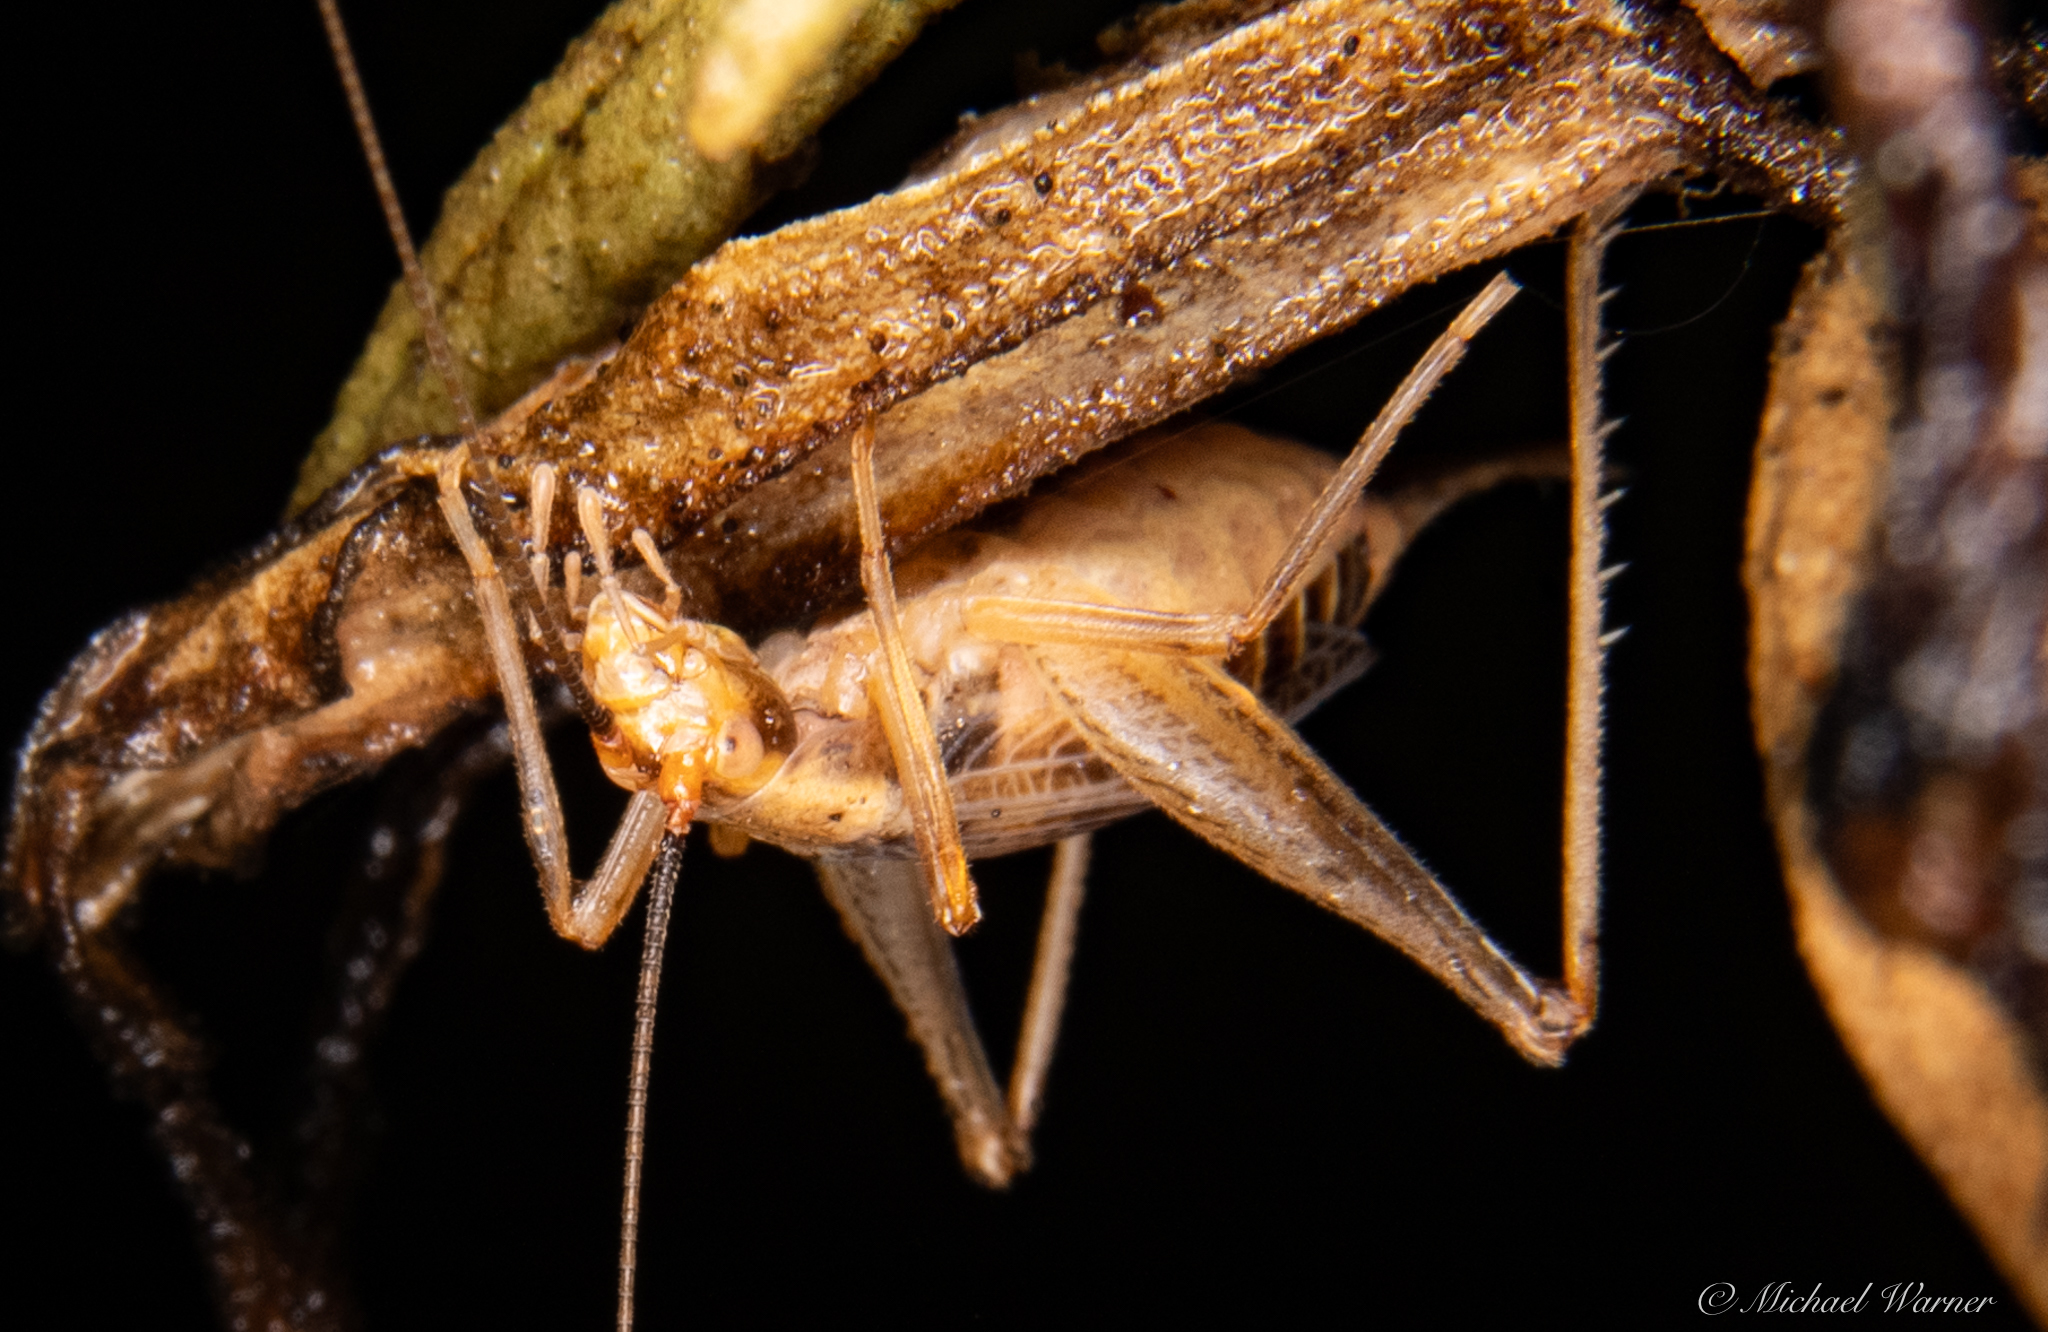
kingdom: Animalia
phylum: Arthropoda
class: Insecta
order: Orthoptera
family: Gryllidae
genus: Oecanthus
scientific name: Oecanthus californicus
